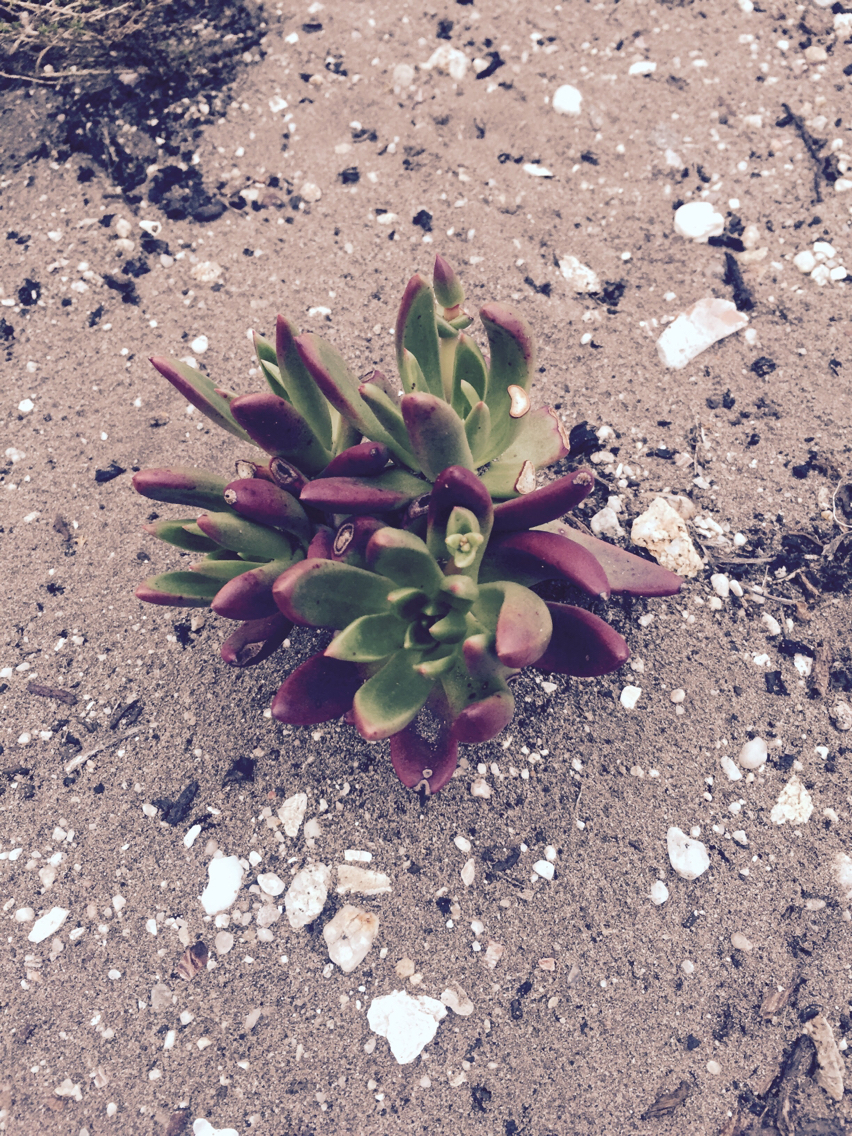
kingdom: Plantae
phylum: Tracheophyta
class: Magnoliopsida
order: Saxifragales
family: Crassulaceae
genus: Dudleya
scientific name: Dudleya caespitosa
